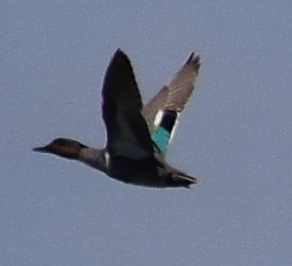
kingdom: Animalia
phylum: Chordata
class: Aves
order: Anseriformes
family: Anatidae
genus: Anas
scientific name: Anas crecca
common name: Eurasian teal
